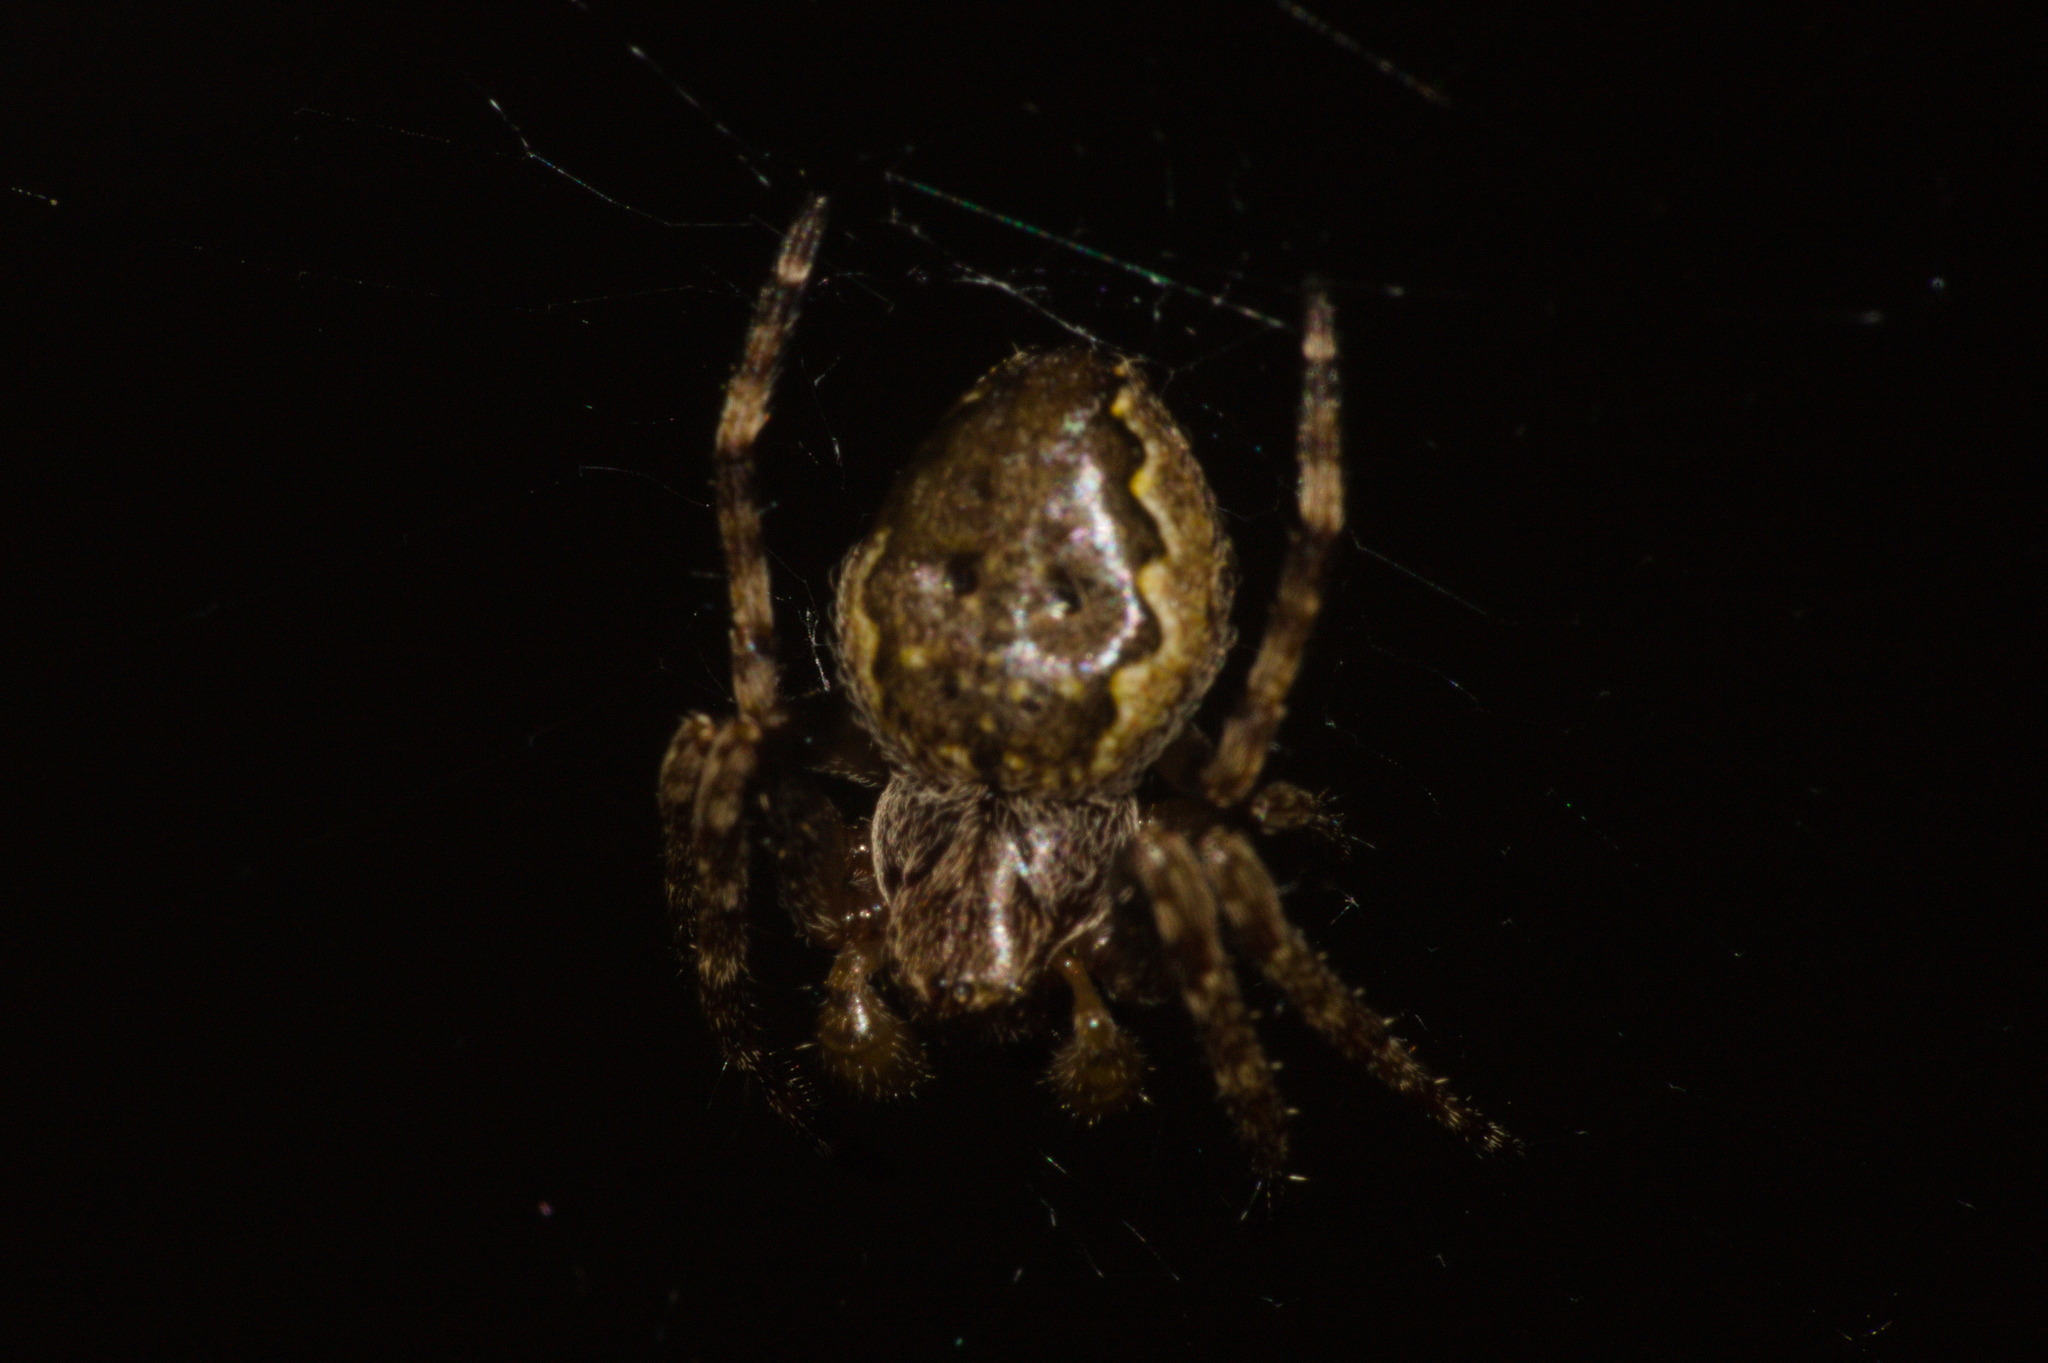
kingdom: Animalia
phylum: Arthropoda
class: Arachnida
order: Araneae
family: Araneidae
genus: Nuctenea
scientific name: Nuctenea umbratica
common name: Toad spider
